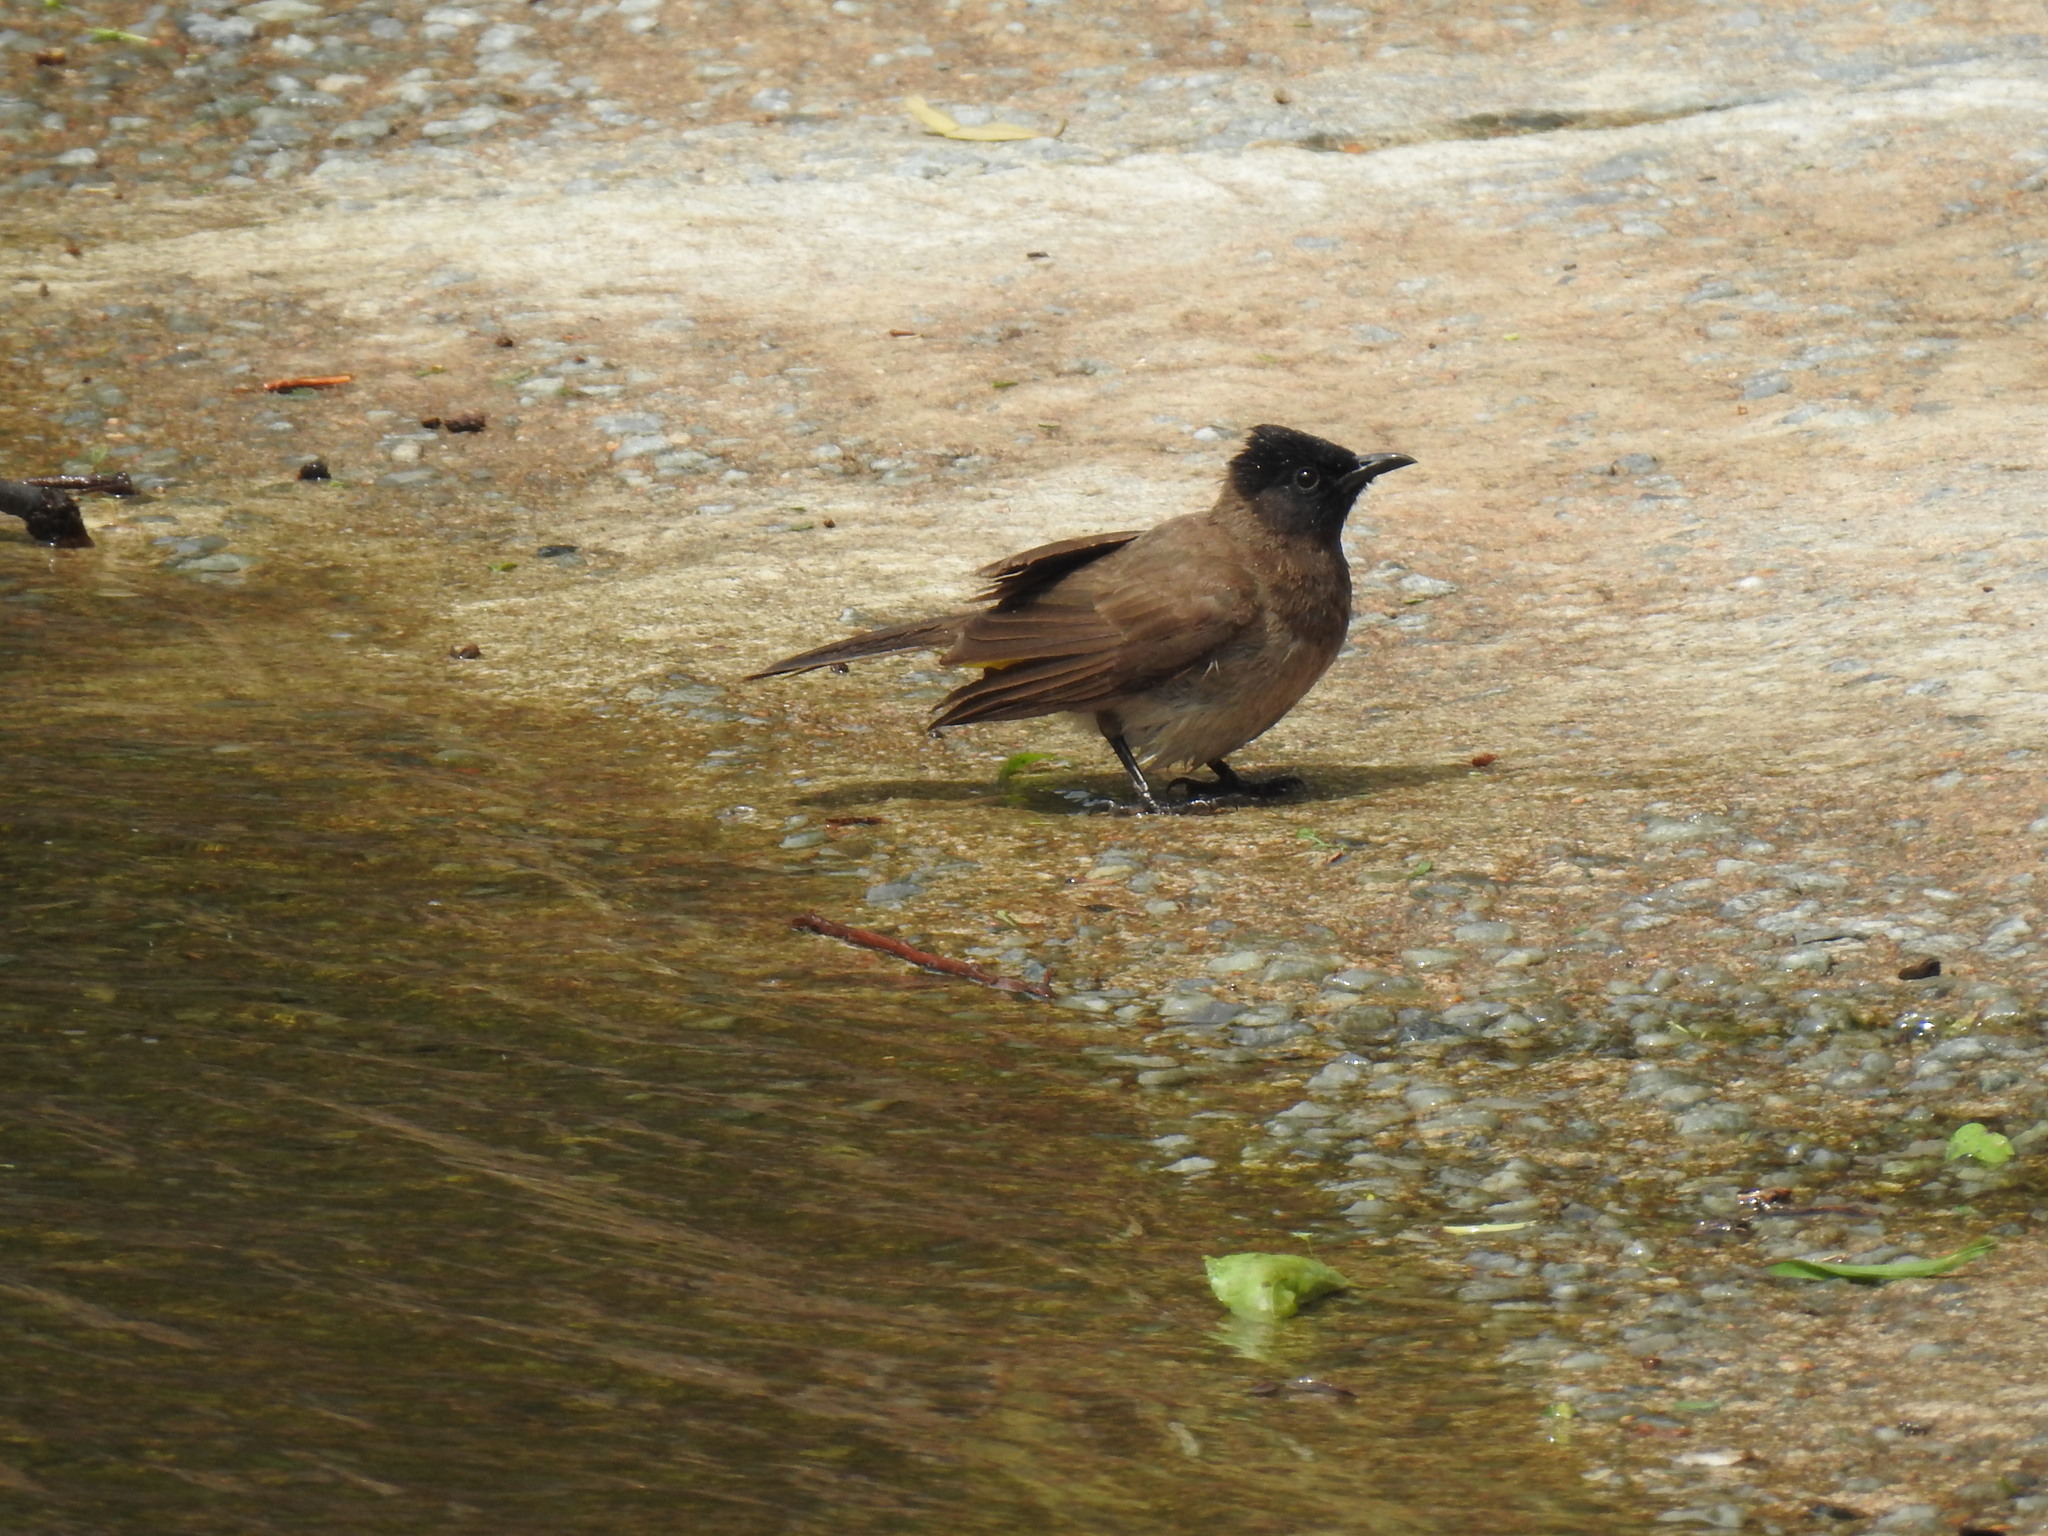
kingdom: Animalia
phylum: Chordata
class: Aves
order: Passeriformes
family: Pycnonotidae
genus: Pycnonotus
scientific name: Pycnonotus barbatus
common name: Common bulbul
